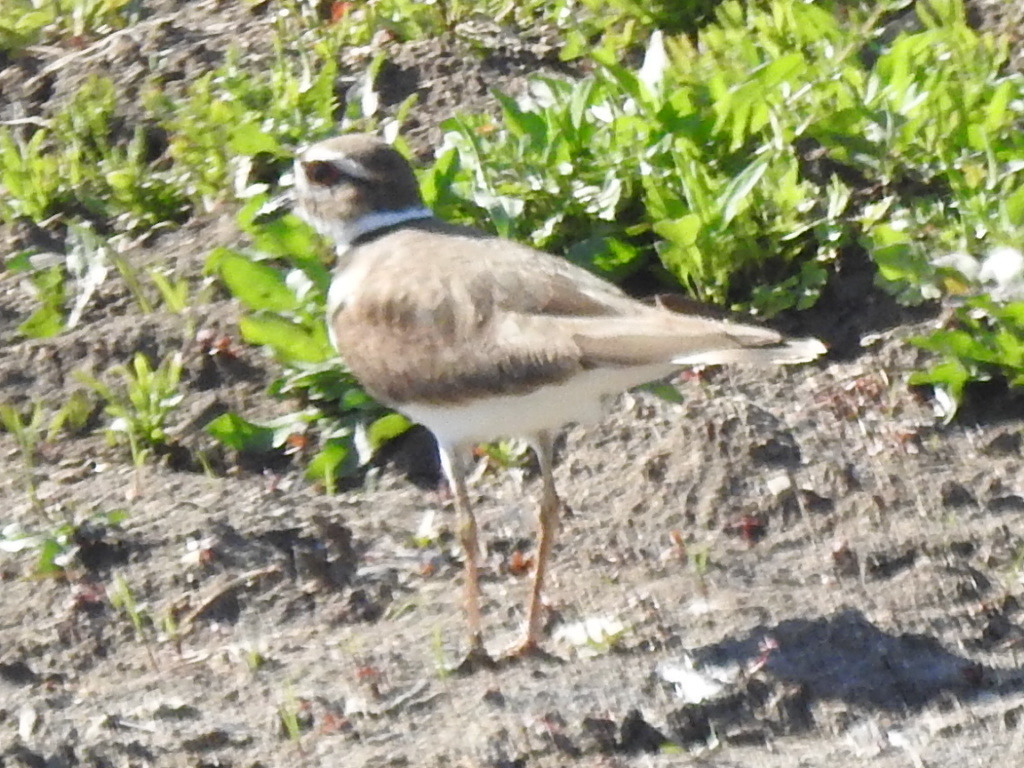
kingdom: Animalia
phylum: Chordata
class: Aves
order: Charadriiformes
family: Charadriidae
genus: Charadrius
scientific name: Charadrius vociferus
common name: Killdeer
